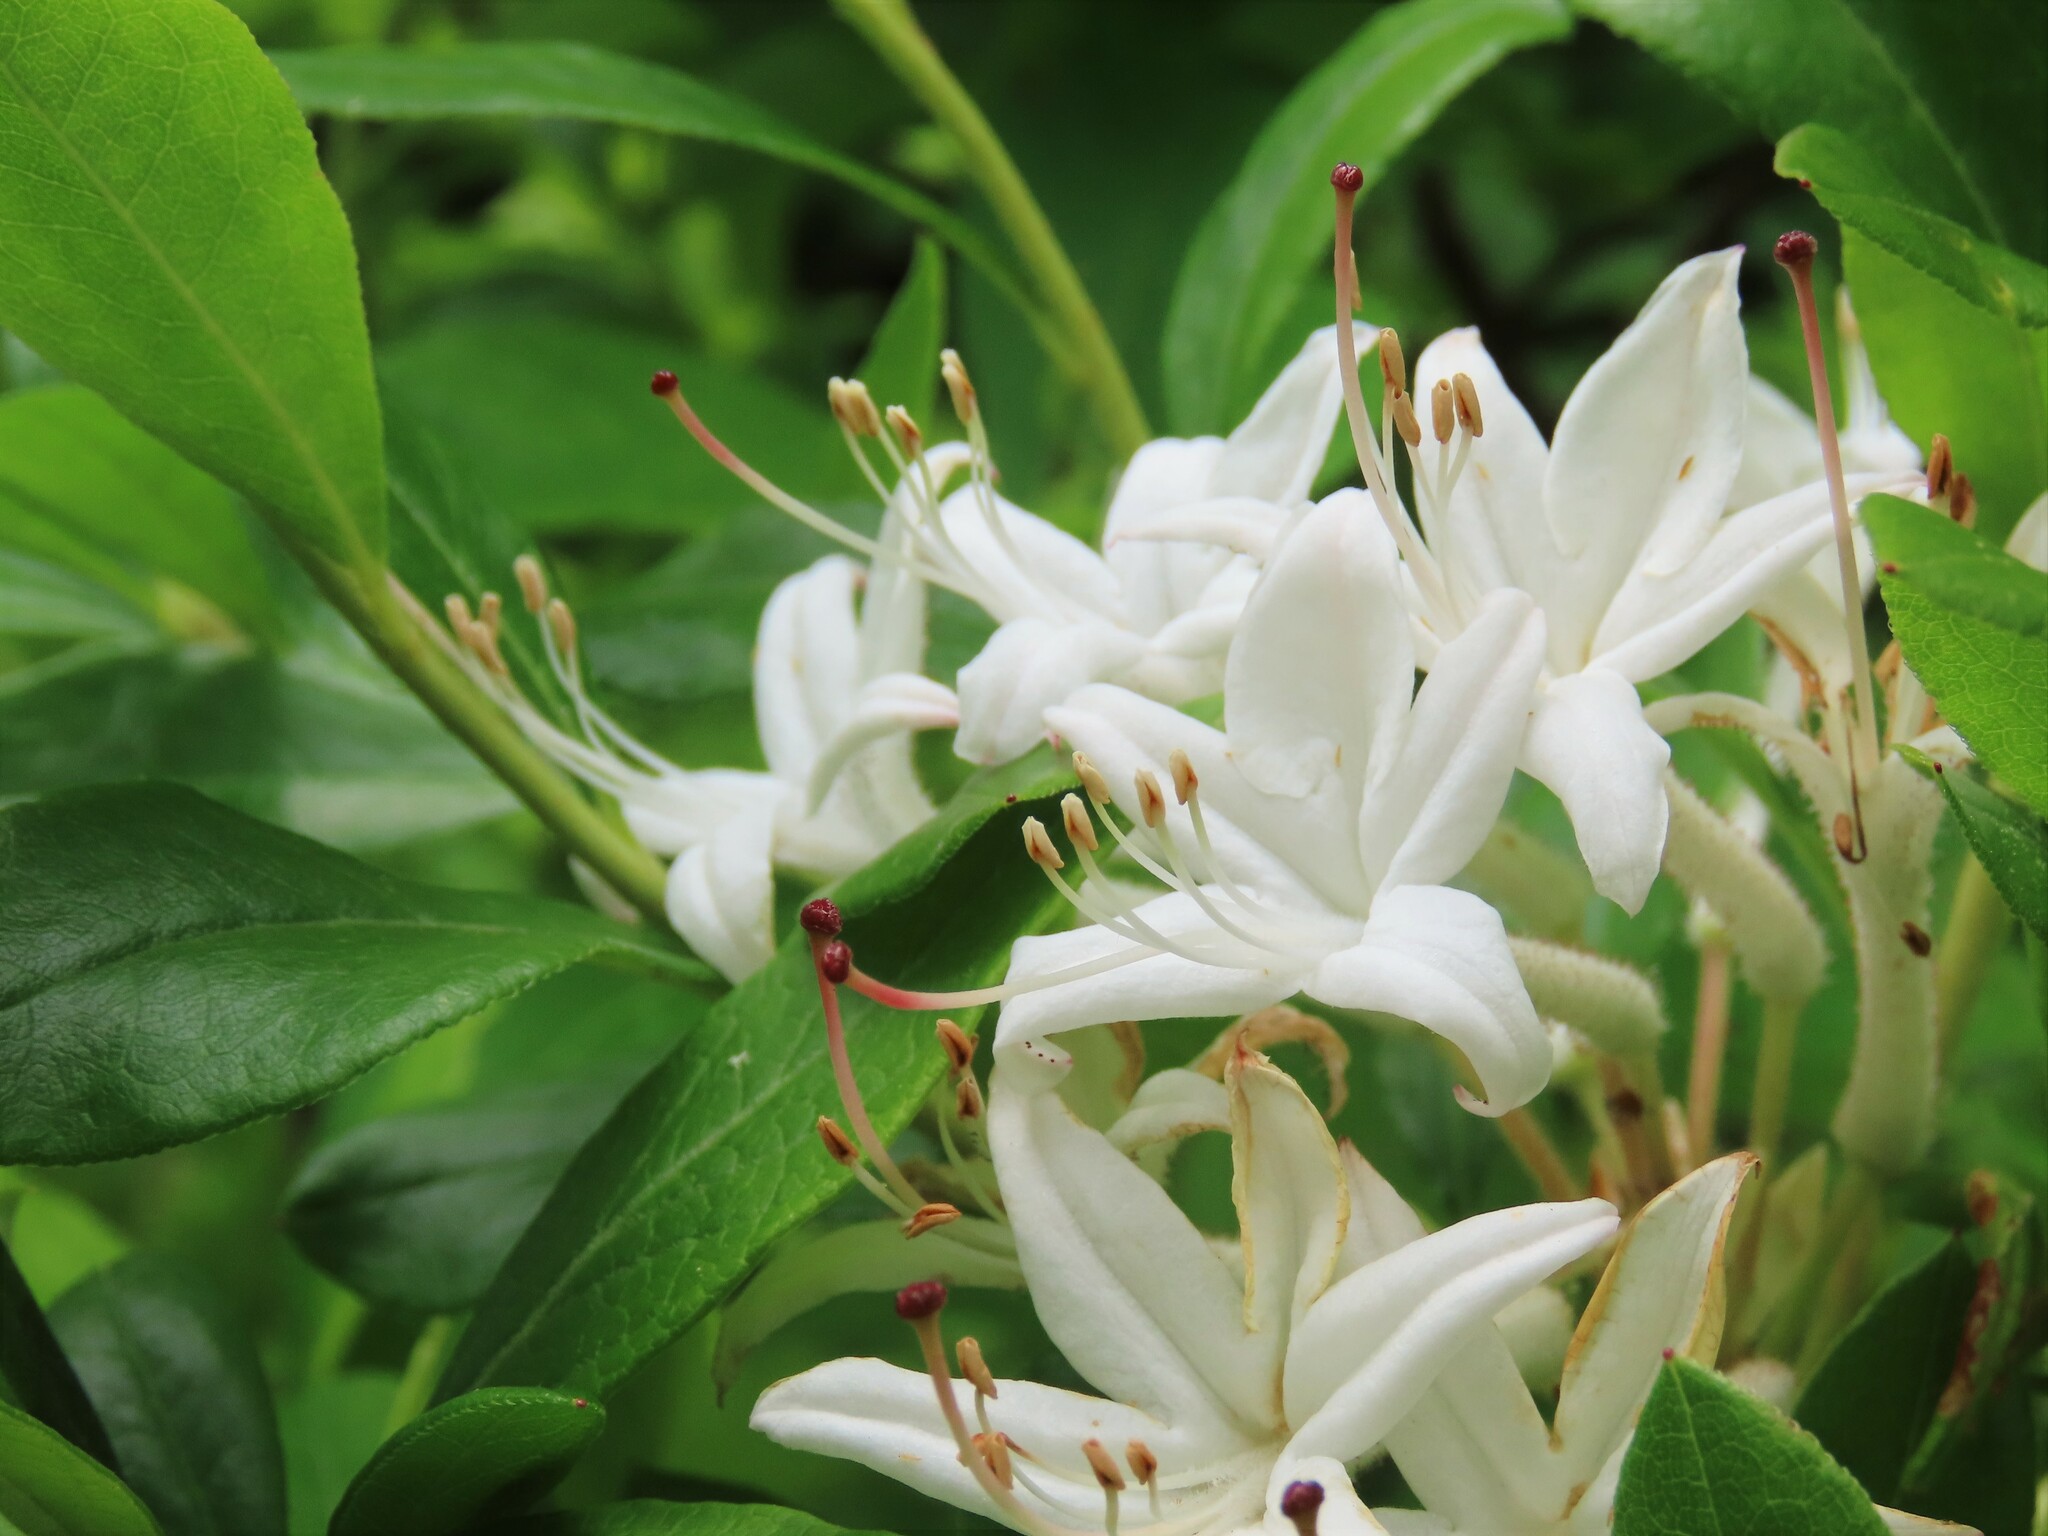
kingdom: Plantae
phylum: Tracheophyta
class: Magnoliopsida
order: Ericales
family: Ericaceae
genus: Rhododendron
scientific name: Rhododendron viscosum
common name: Clammy azalea
